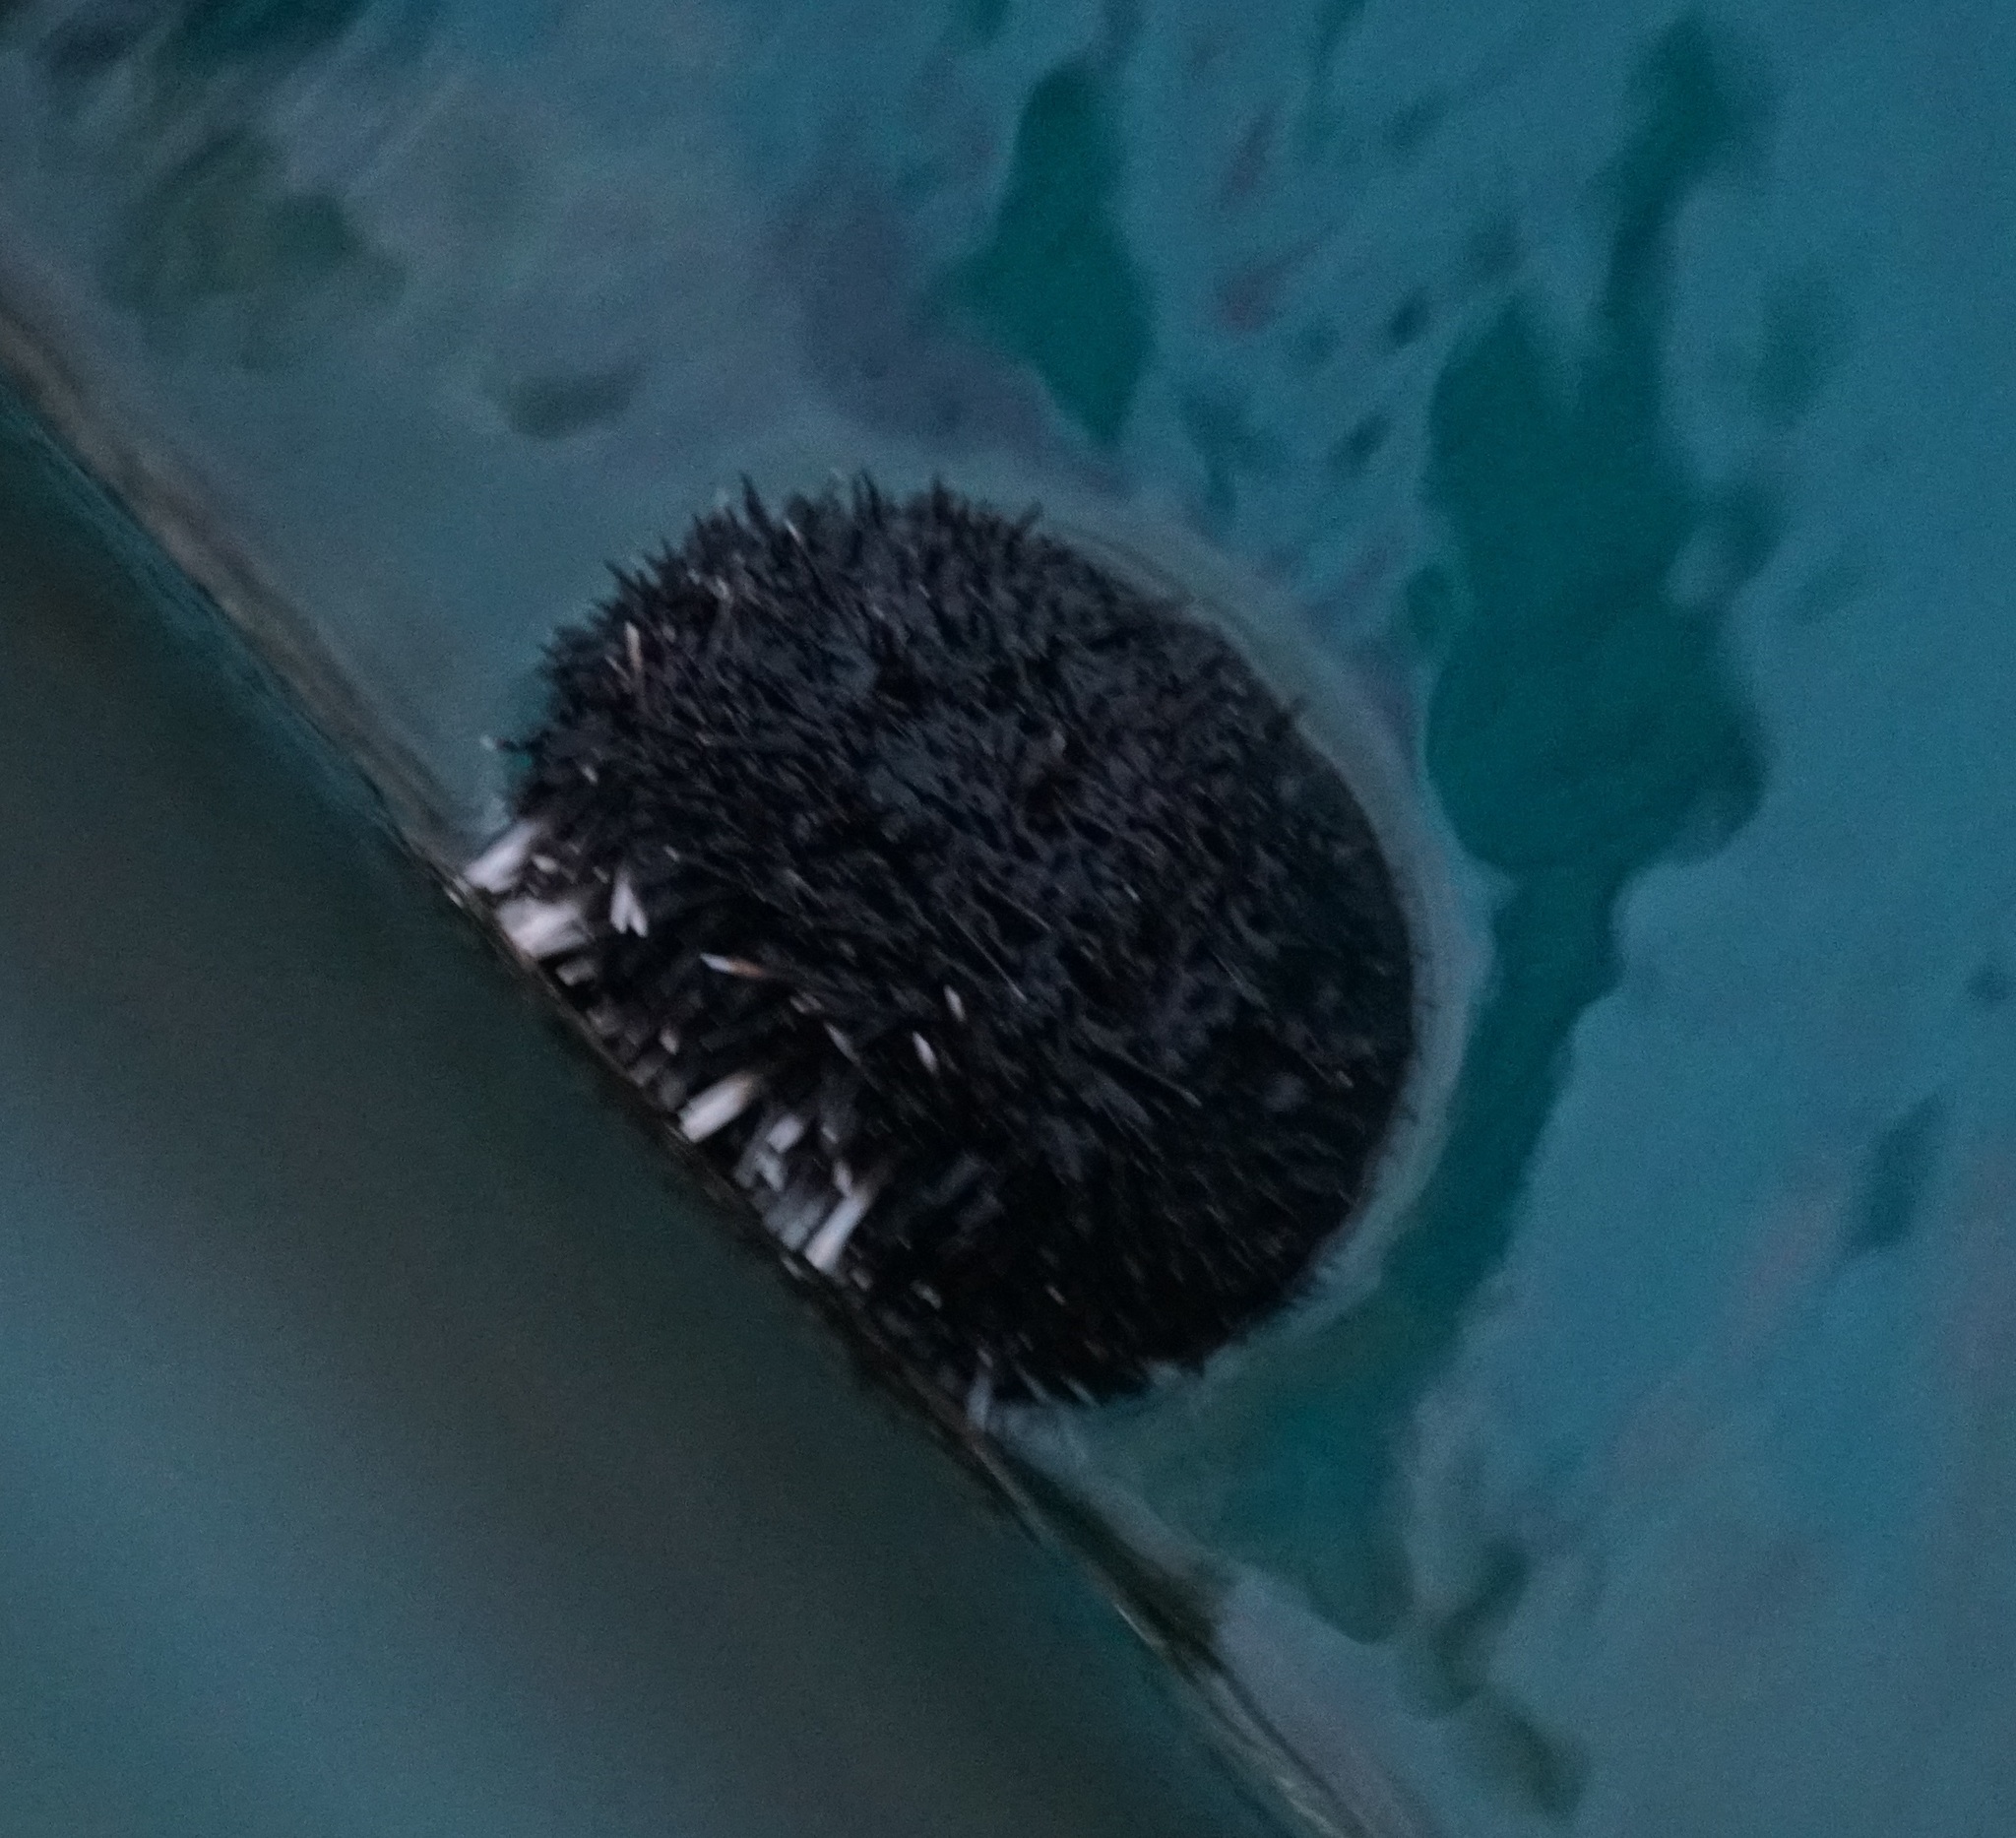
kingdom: Animalia
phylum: Echinodermata
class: Echinoidea
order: Camarodonta
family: Toxopneustidae
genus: Tripneustes
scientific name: Tripneustes gratilla
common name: Bischofsmützenseeigel
